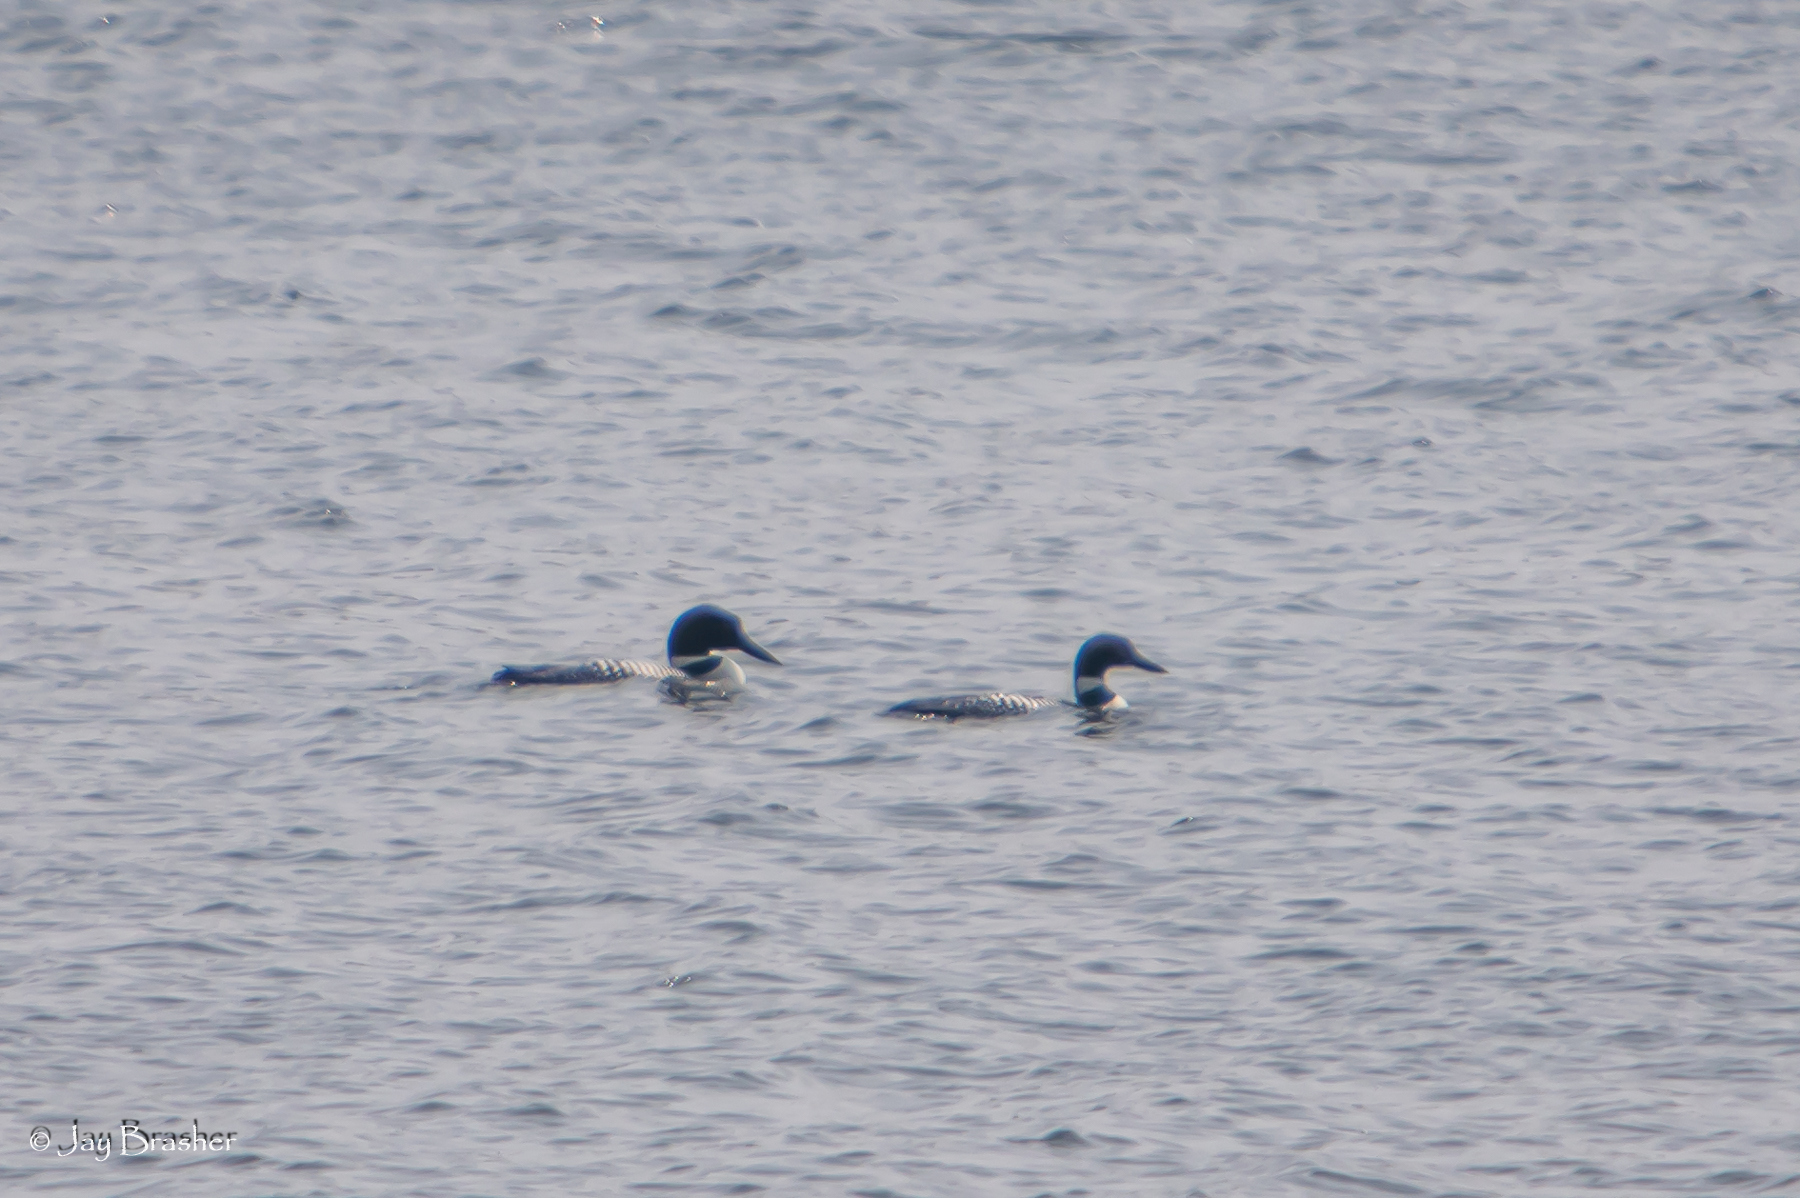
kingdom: Animalia
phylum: Chordata
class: Aves
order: Gaviiformes
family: Gaviidae
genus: Gavia
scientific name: Gavia immer
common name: Common loon
